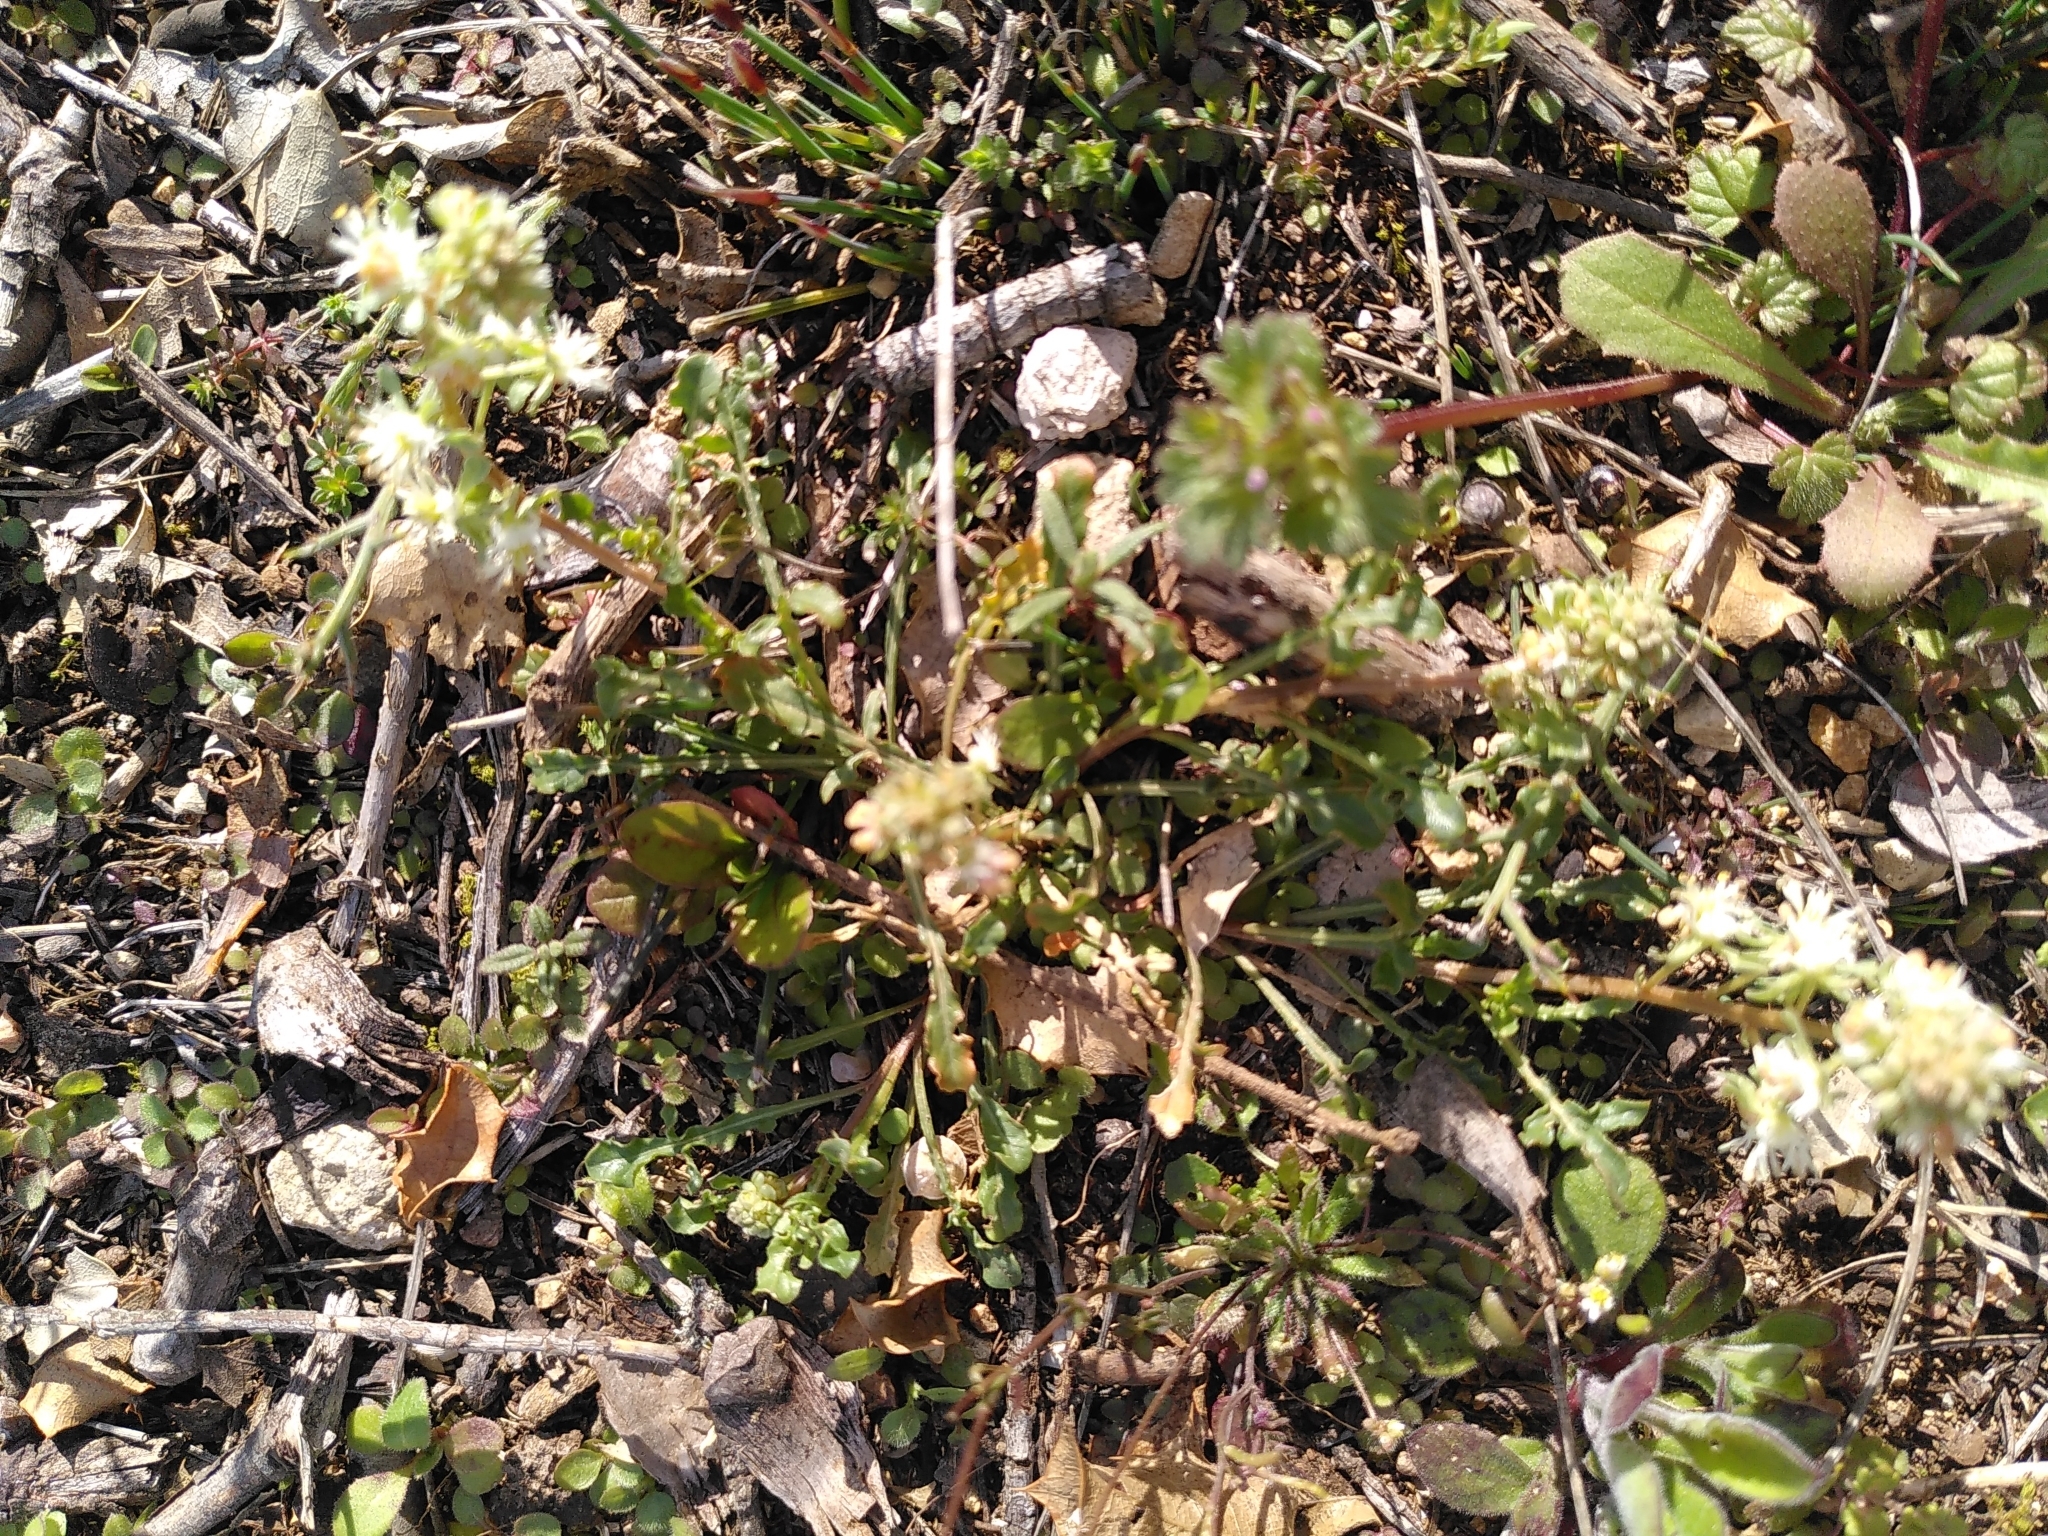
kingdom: Plantae
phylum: Tracheophyta
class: Magnoliopsida
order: Brassicales
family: Resedaceae
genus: Reseda
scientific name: Reseda phyteuma
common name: Corn mignonette
